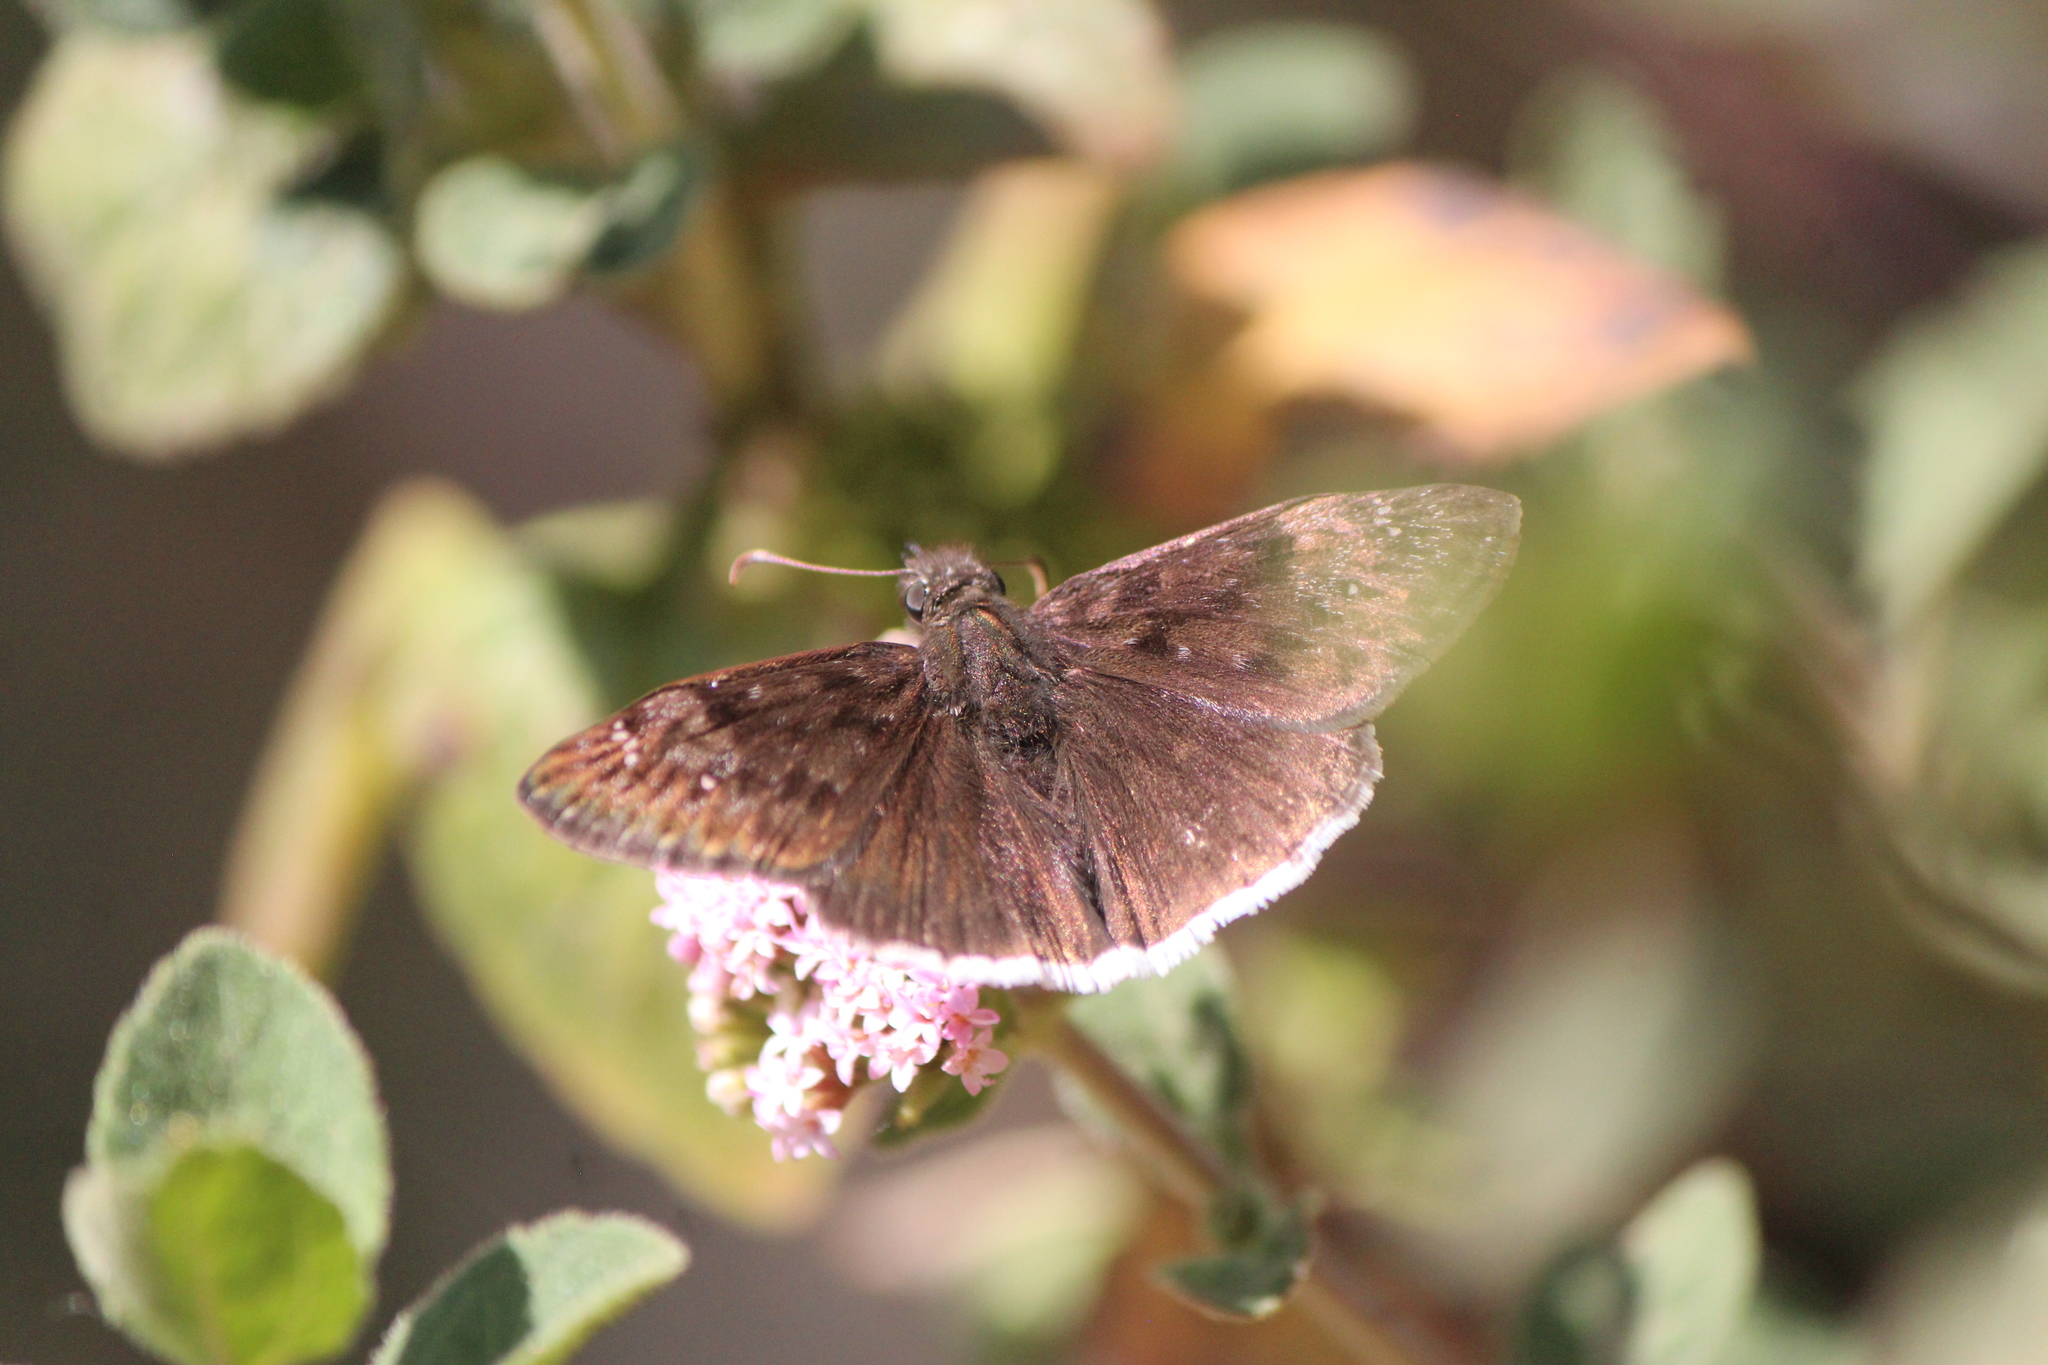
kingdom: Animalia
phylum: Arthropoda
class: Insecta
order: Lepidoptera
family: Hesperiidae
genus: Erynnis
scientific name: Erynnis tristis
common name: Mournful duskywing
